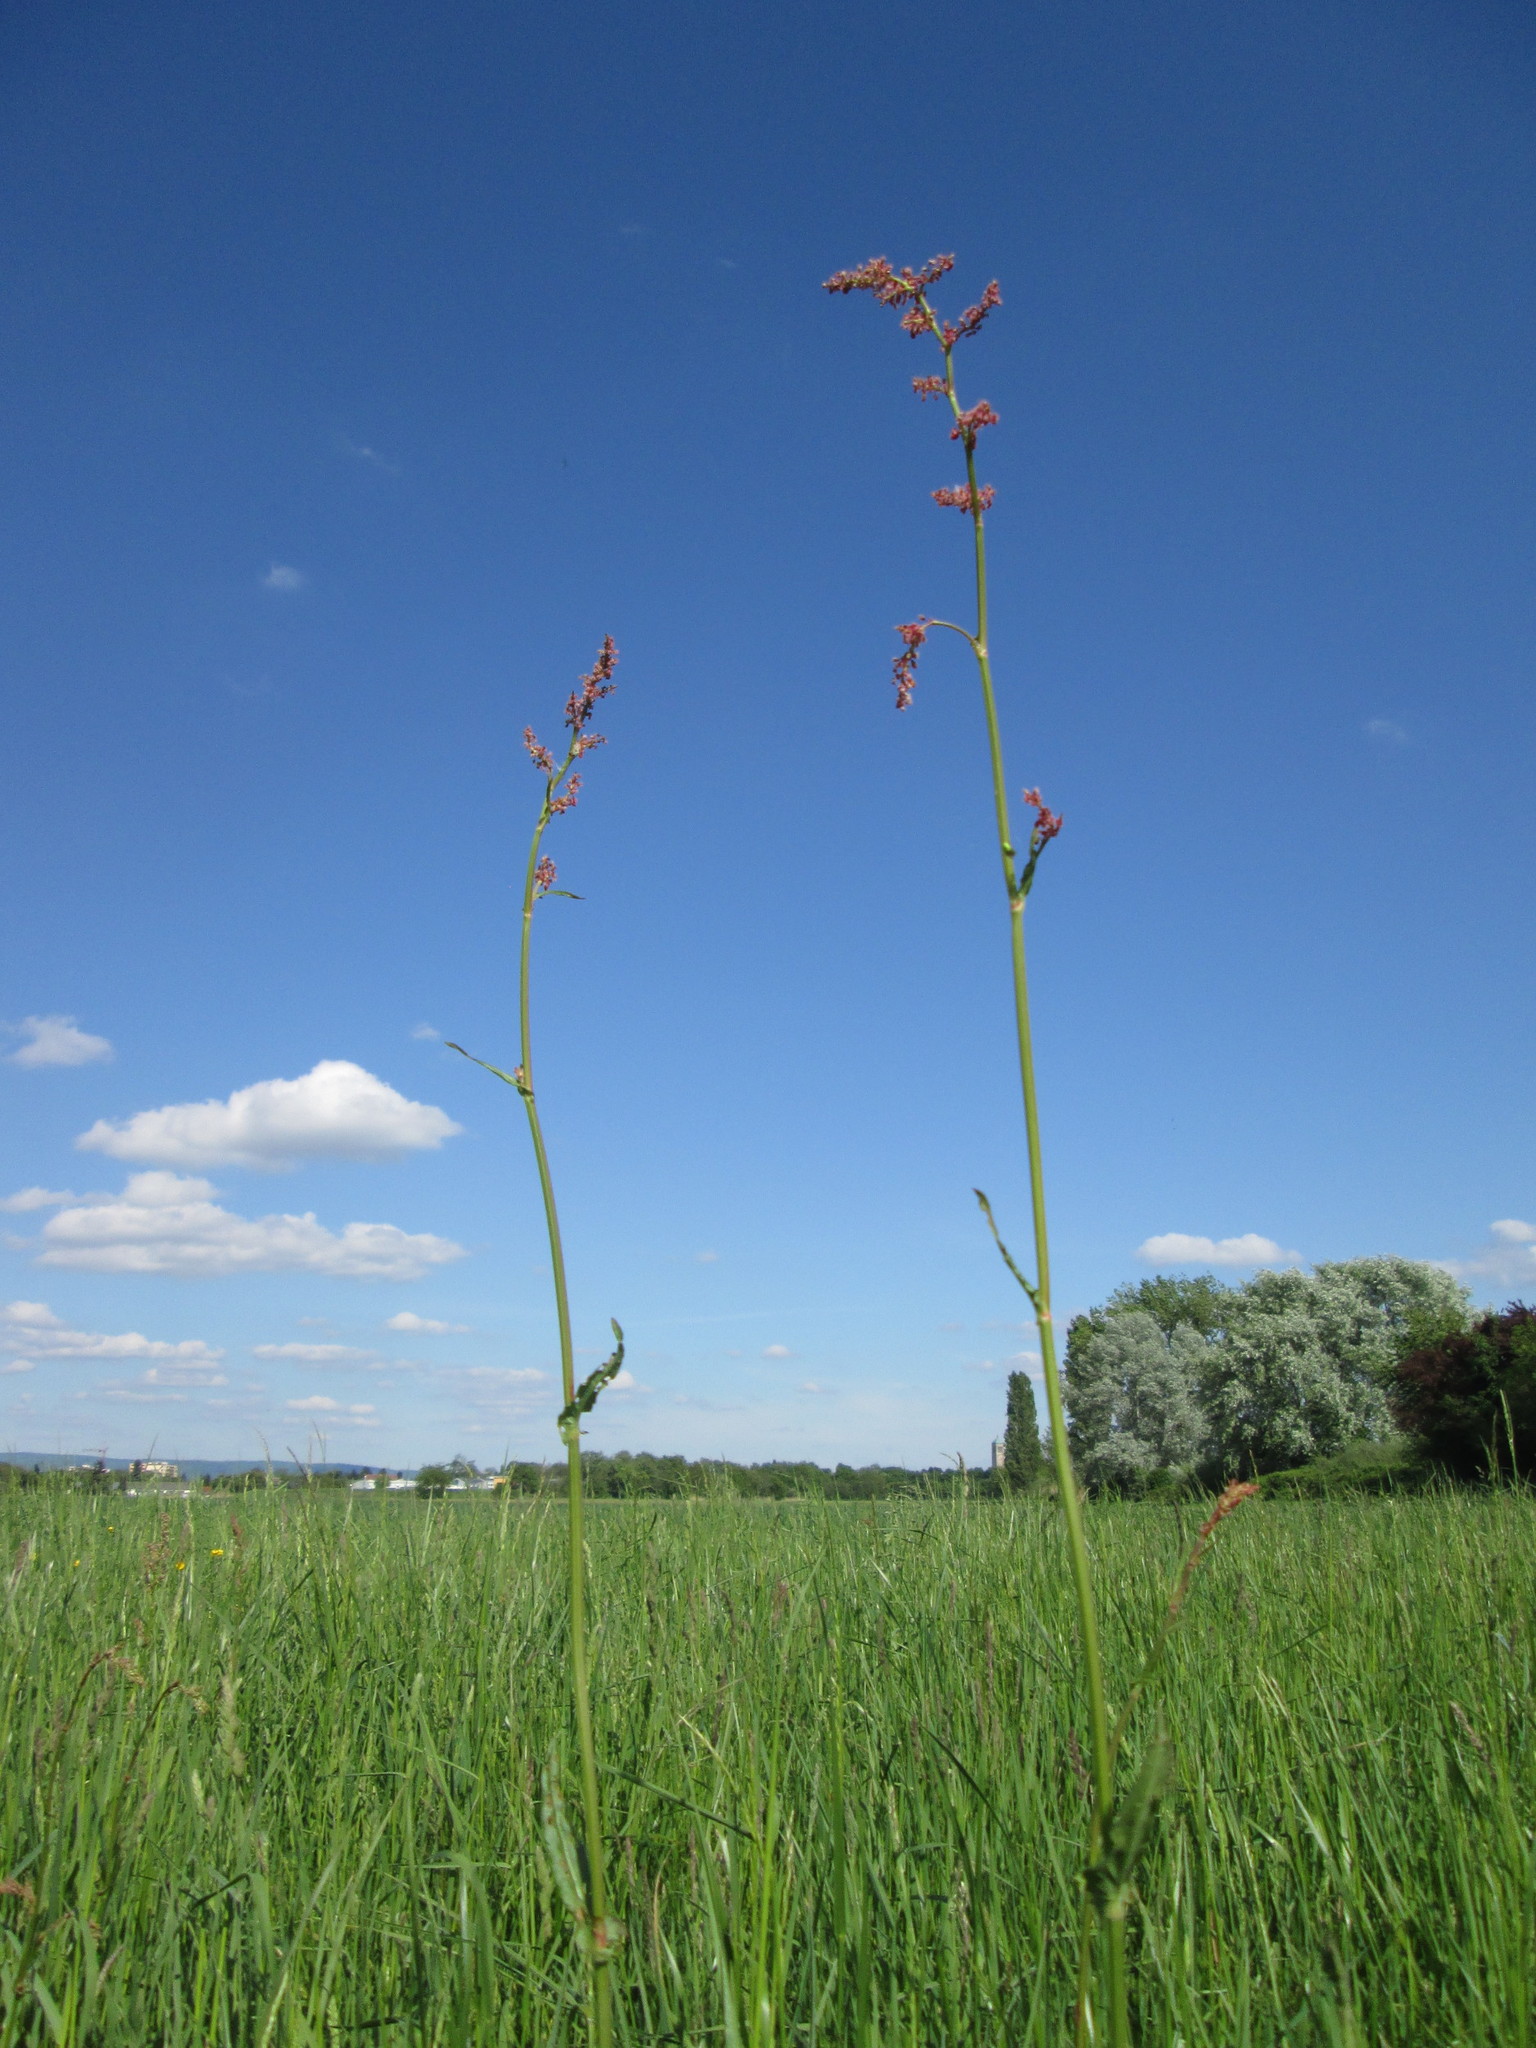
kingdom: Plantae
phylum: Tracheophyta
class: Magnoliopsida
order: Caryophyllales
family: Polygonaceae
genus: Rumex
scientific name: Rumex acetosa
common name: Garden sorrel
